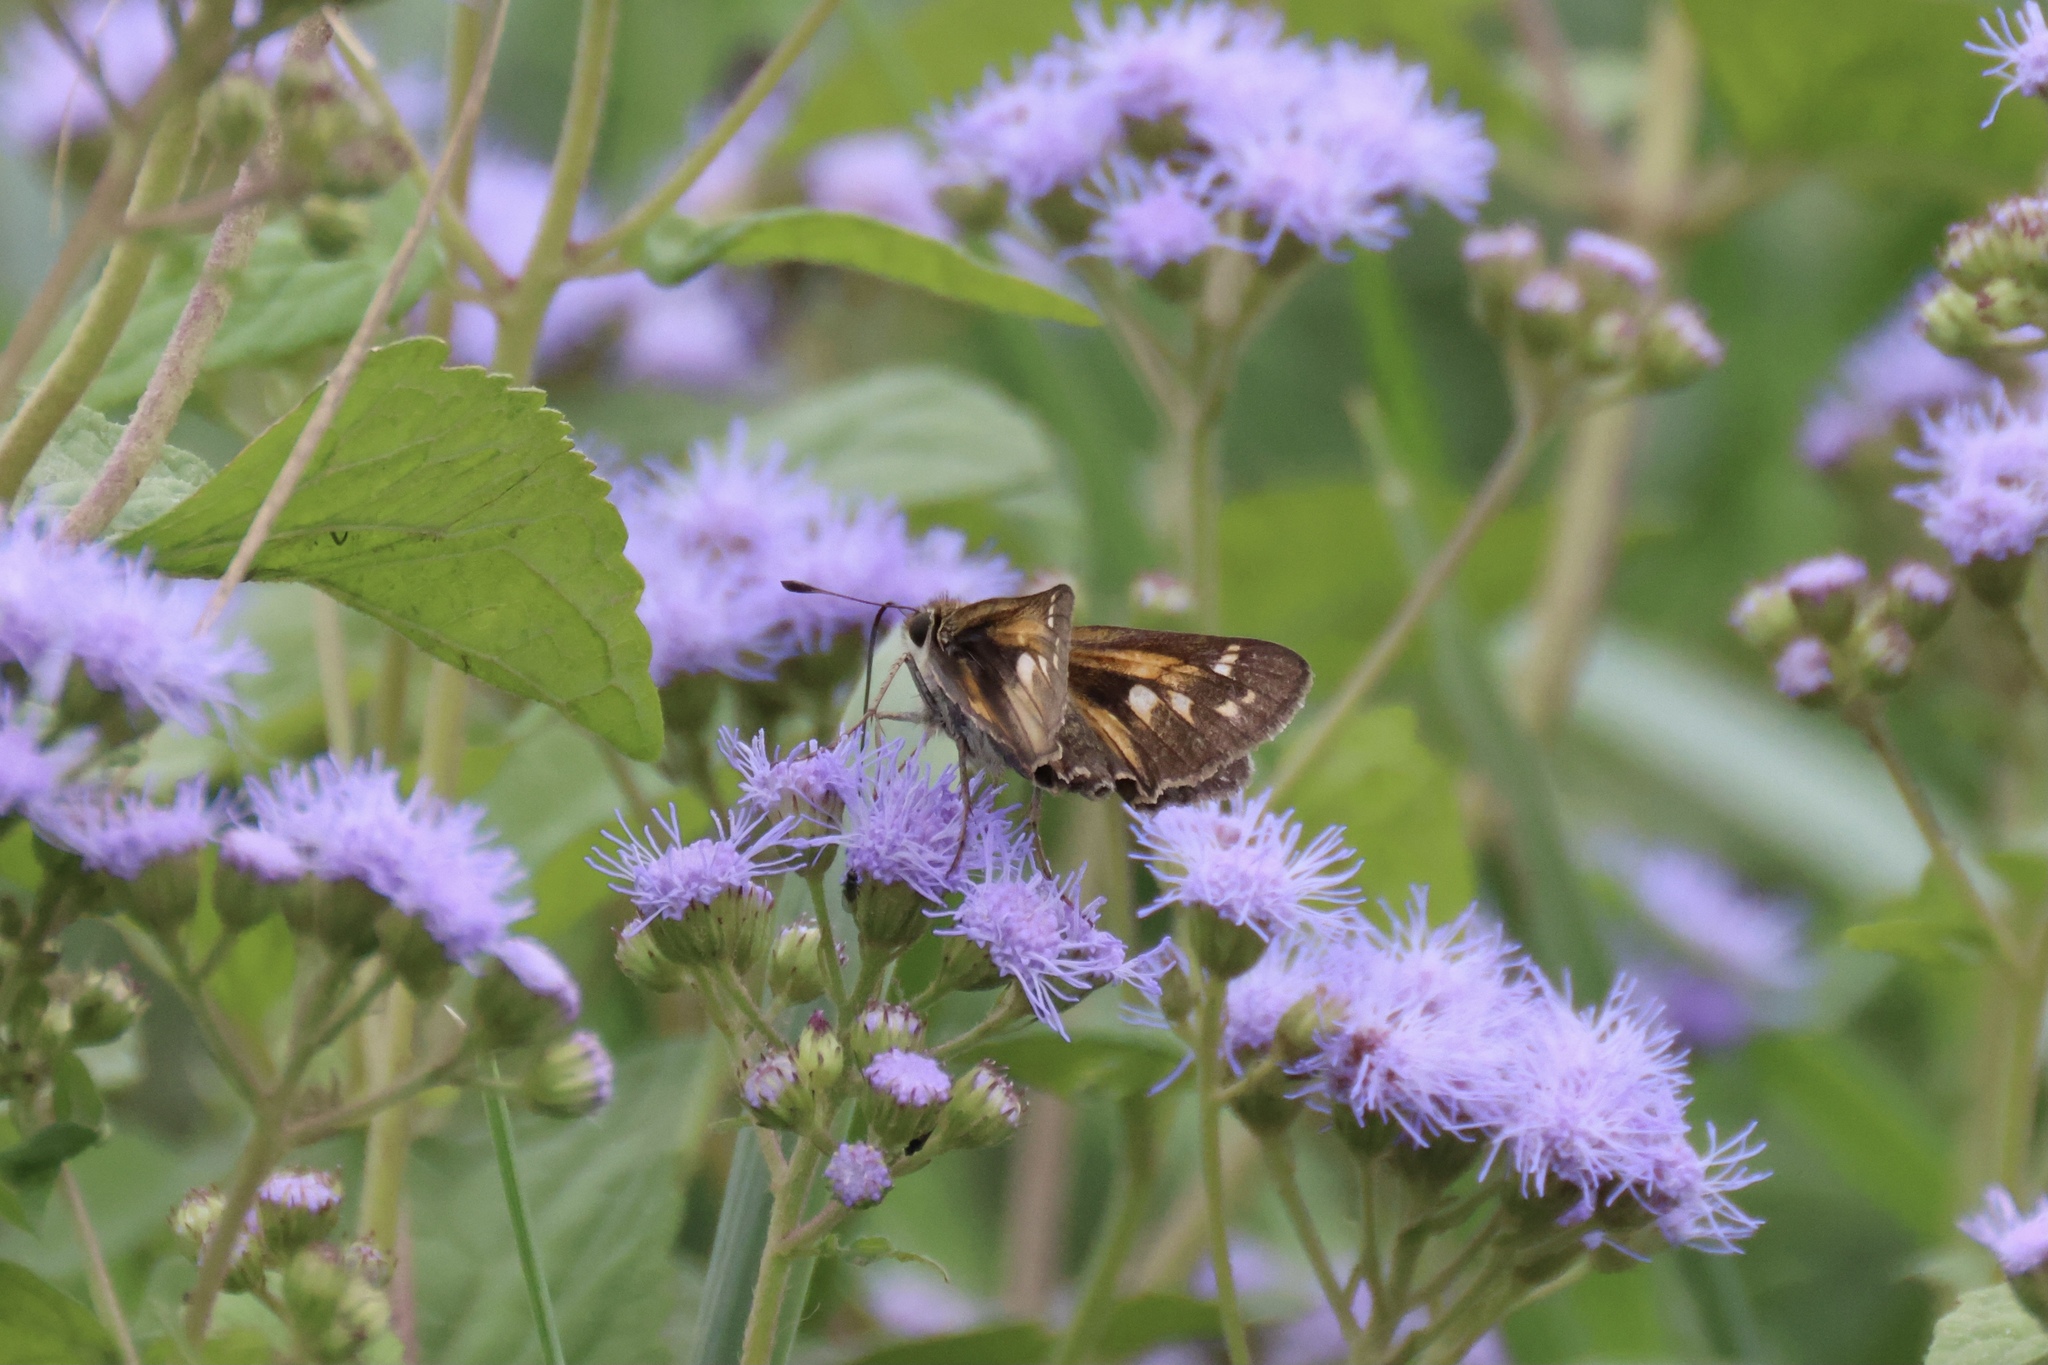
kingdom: Animalia
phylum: Arthropoda
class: Insecta
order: Lepidoptera
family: Hesperiidae
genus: Atalopedes
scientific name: Atalopedes
